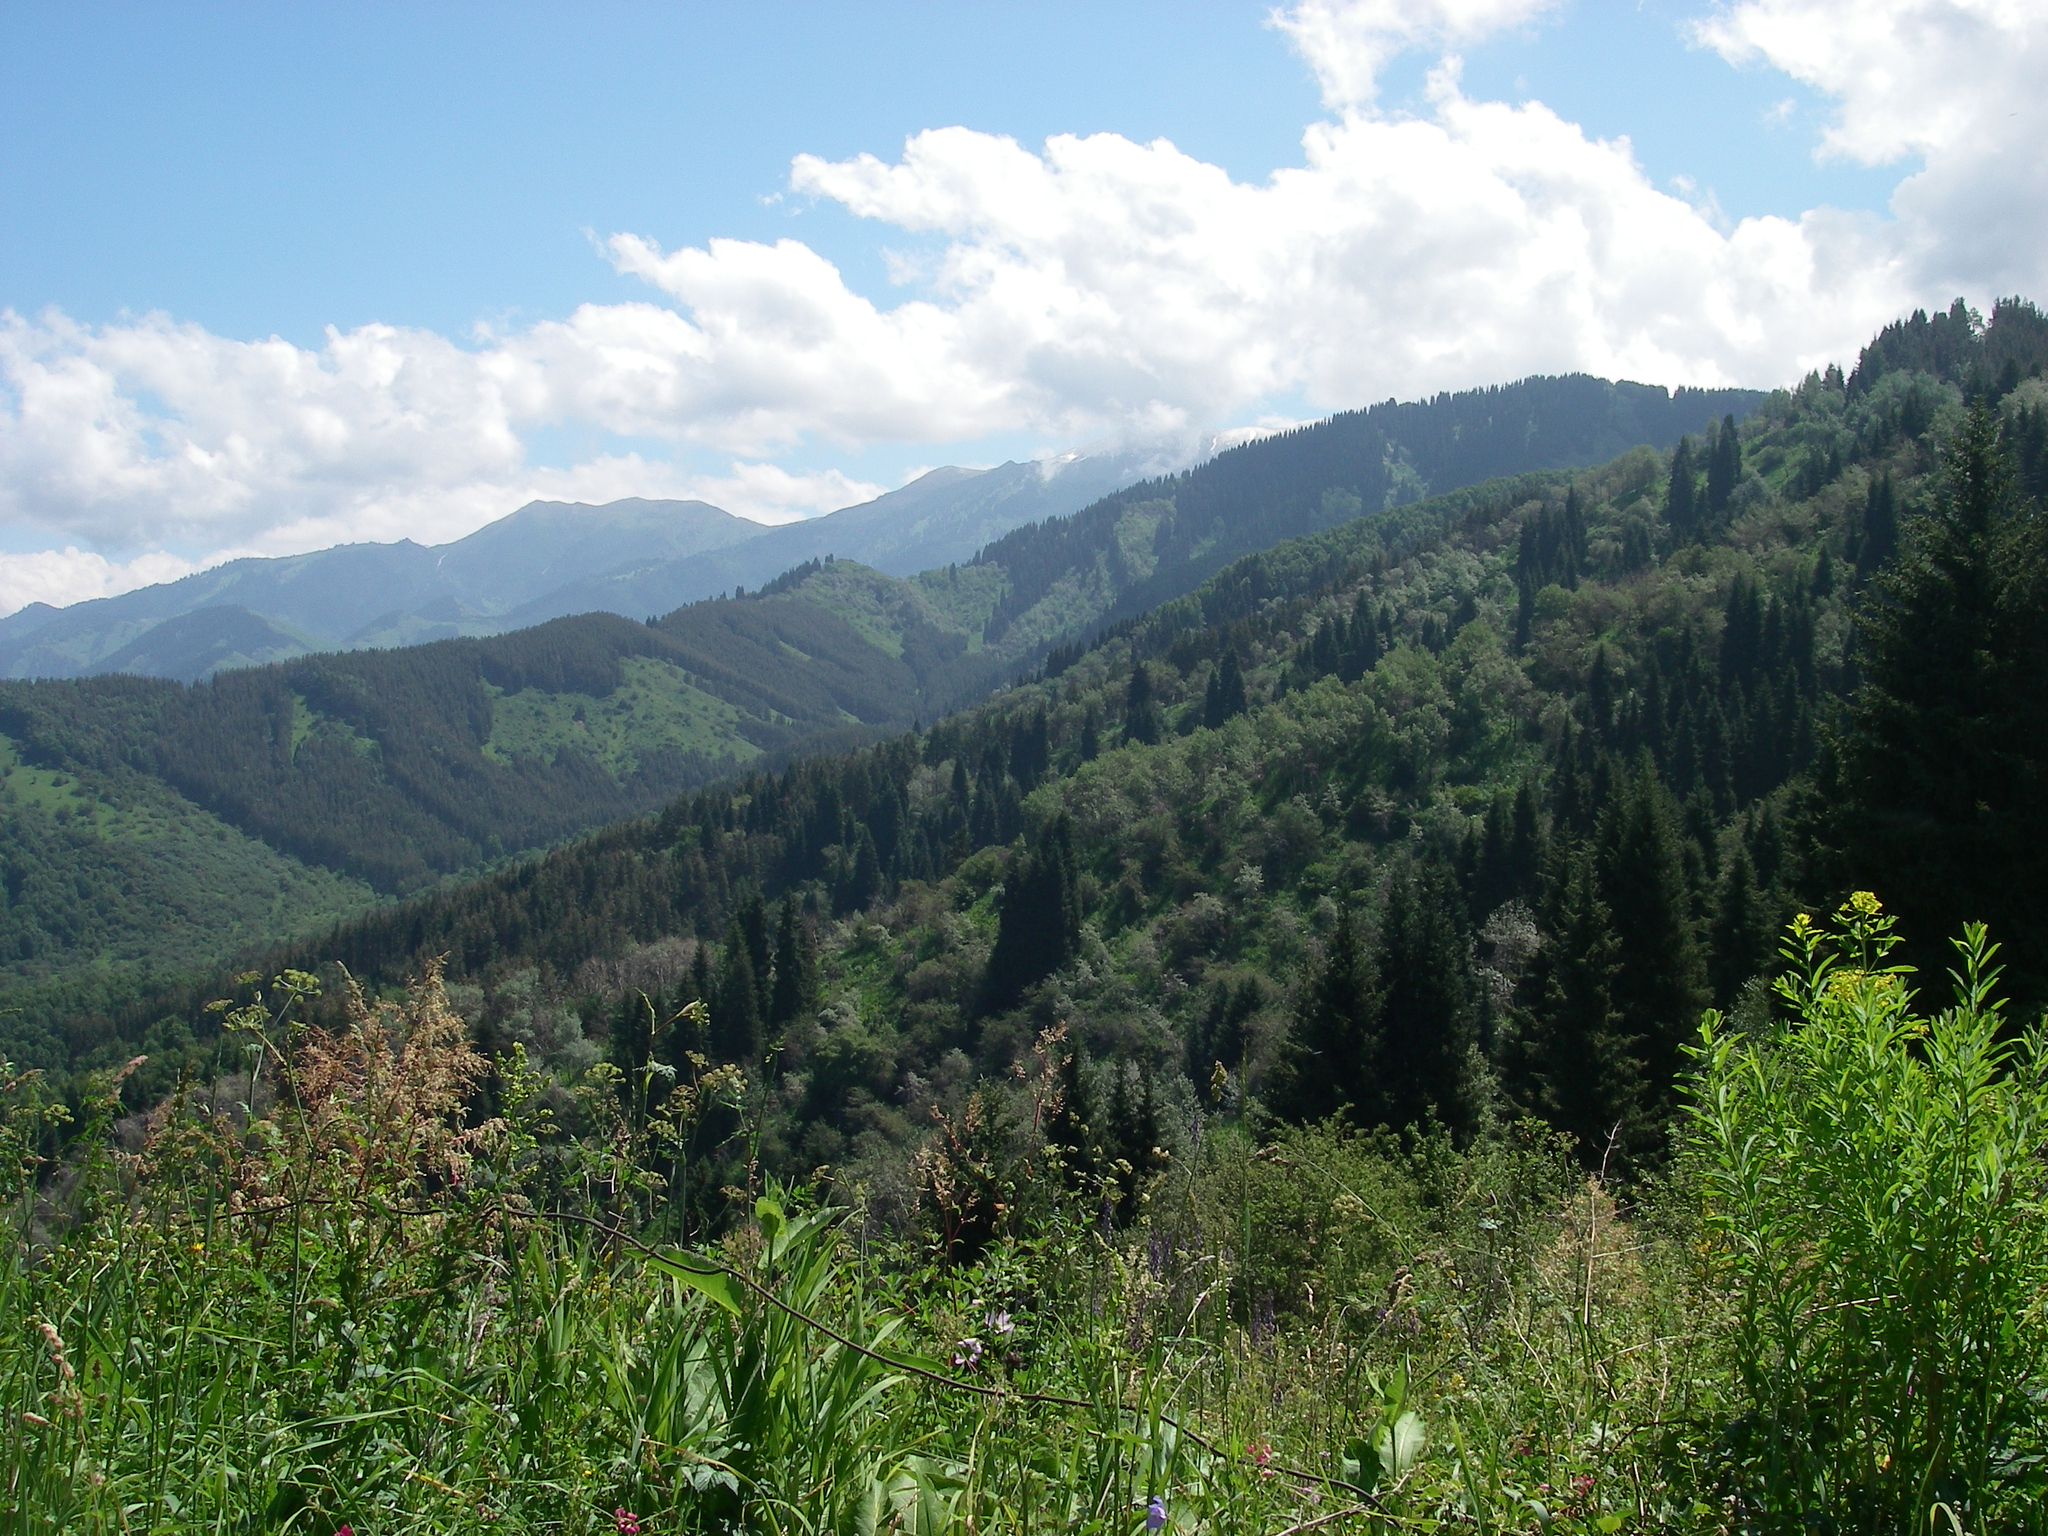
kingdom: Plantae
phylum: Tracheophyta
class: Pinopsida
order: Pinales
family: Pinaceae
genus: Picea
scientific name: Picea schrenkiana
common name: Asian spruce
